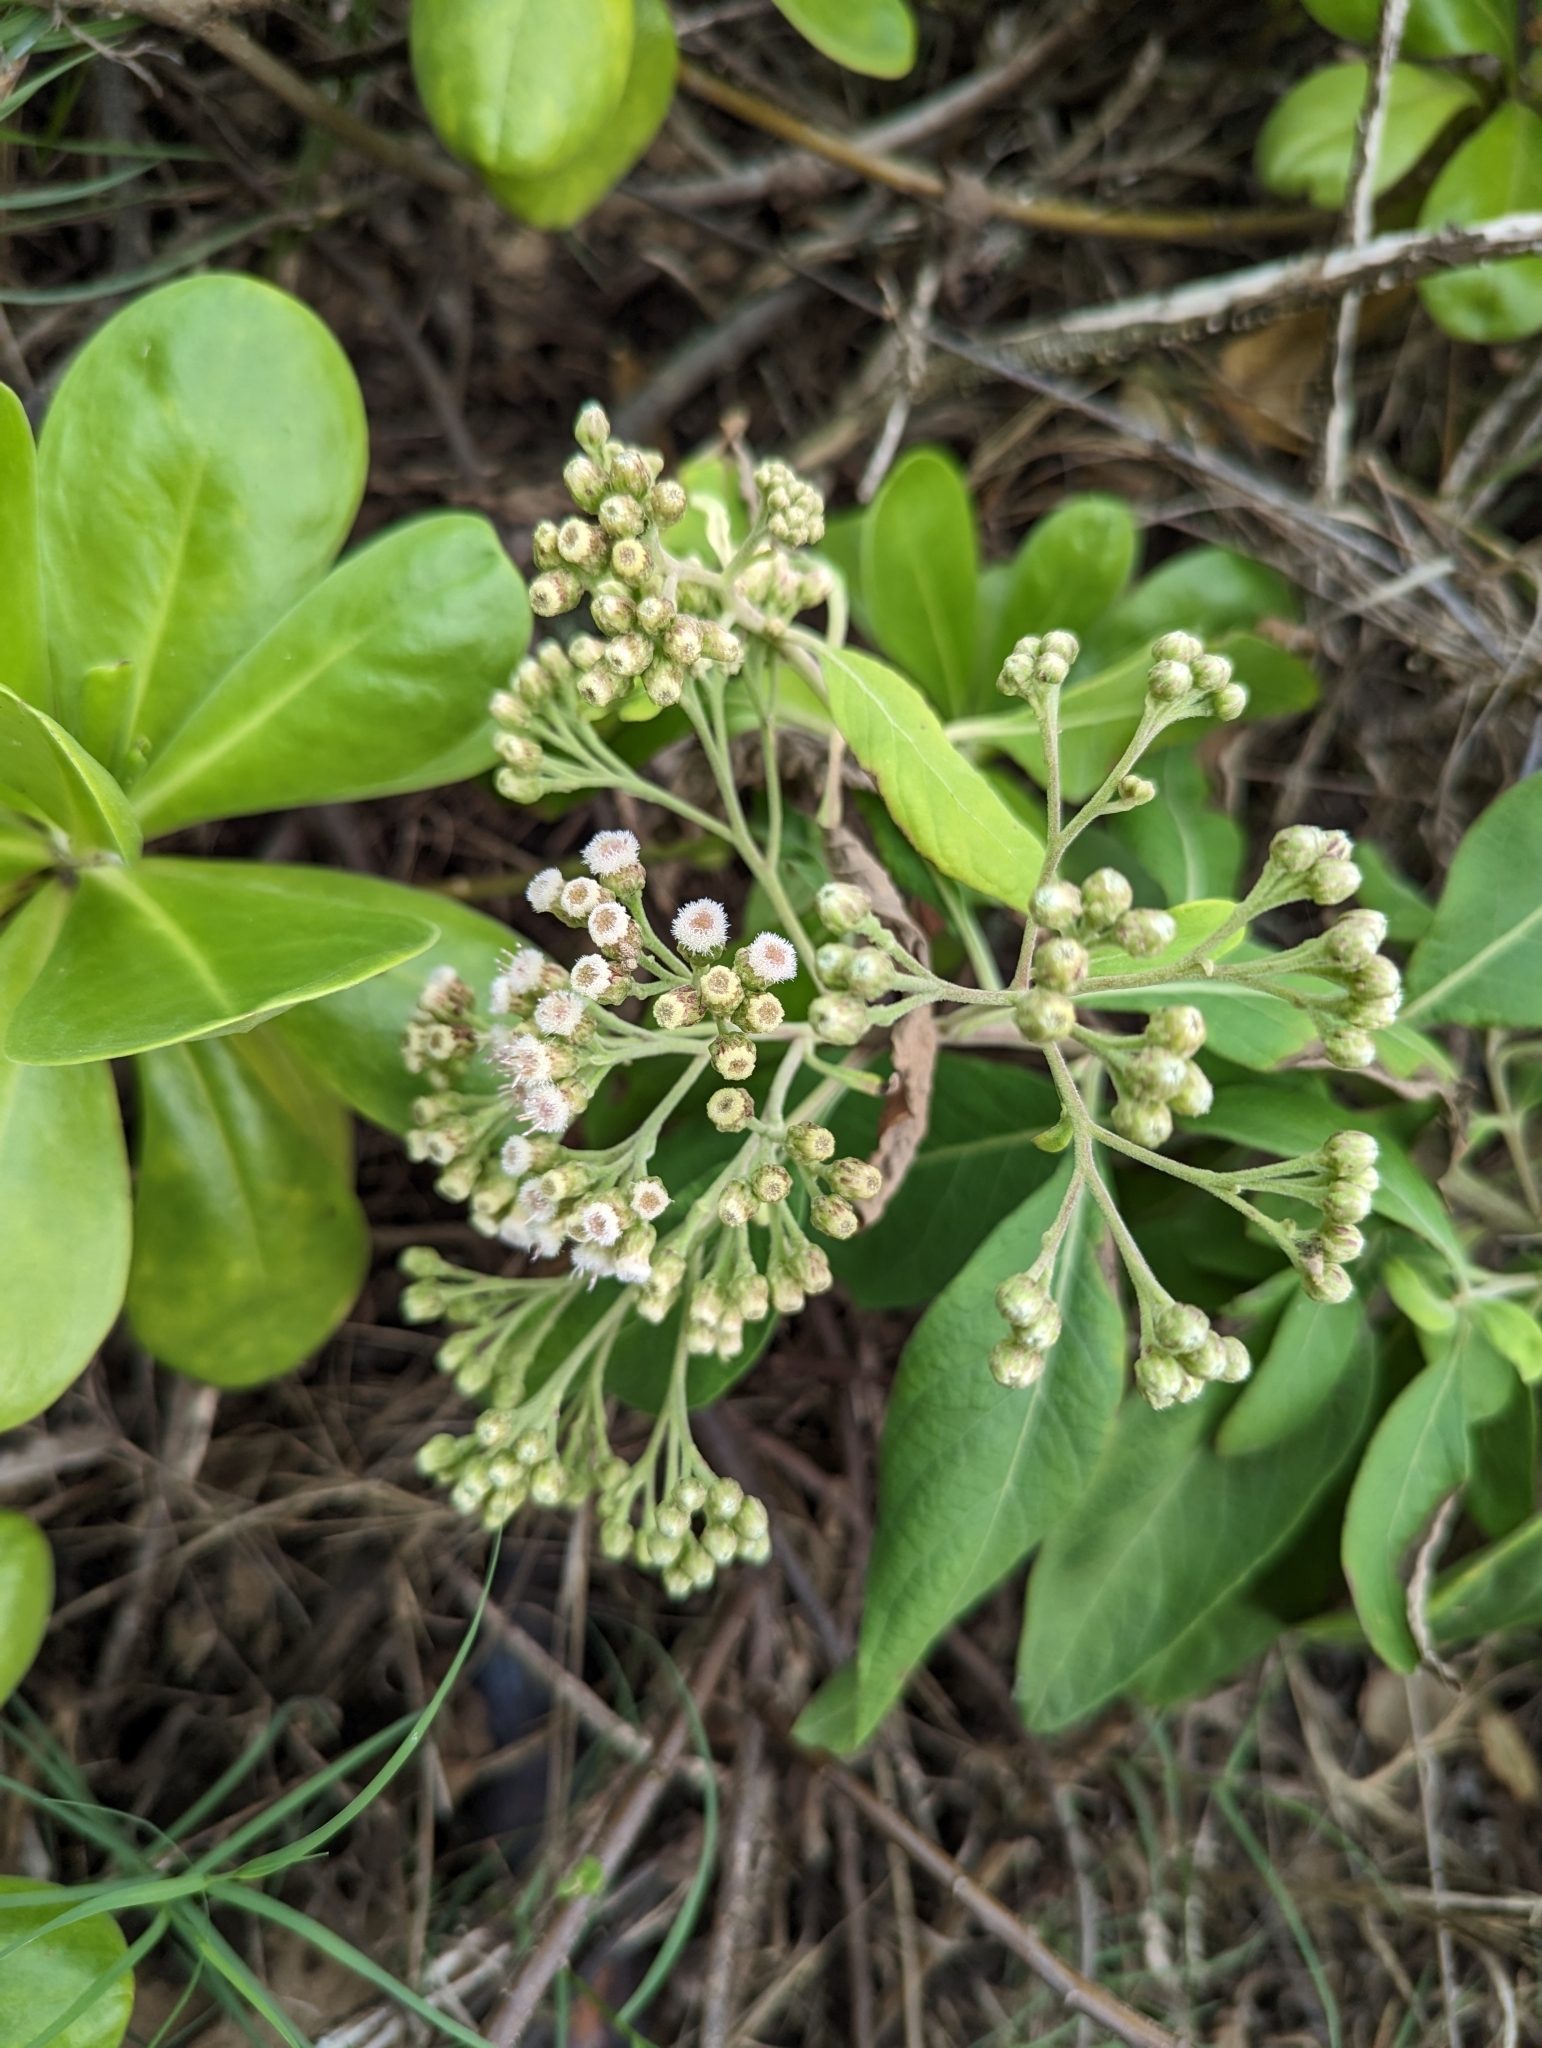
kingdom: Plantae
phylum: Tracheophyta
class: Magnoliopsida
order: Asterales
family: Asteraceae
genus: Pluchea
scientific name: Pluchea carolinensis
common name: Marsh fleabane
